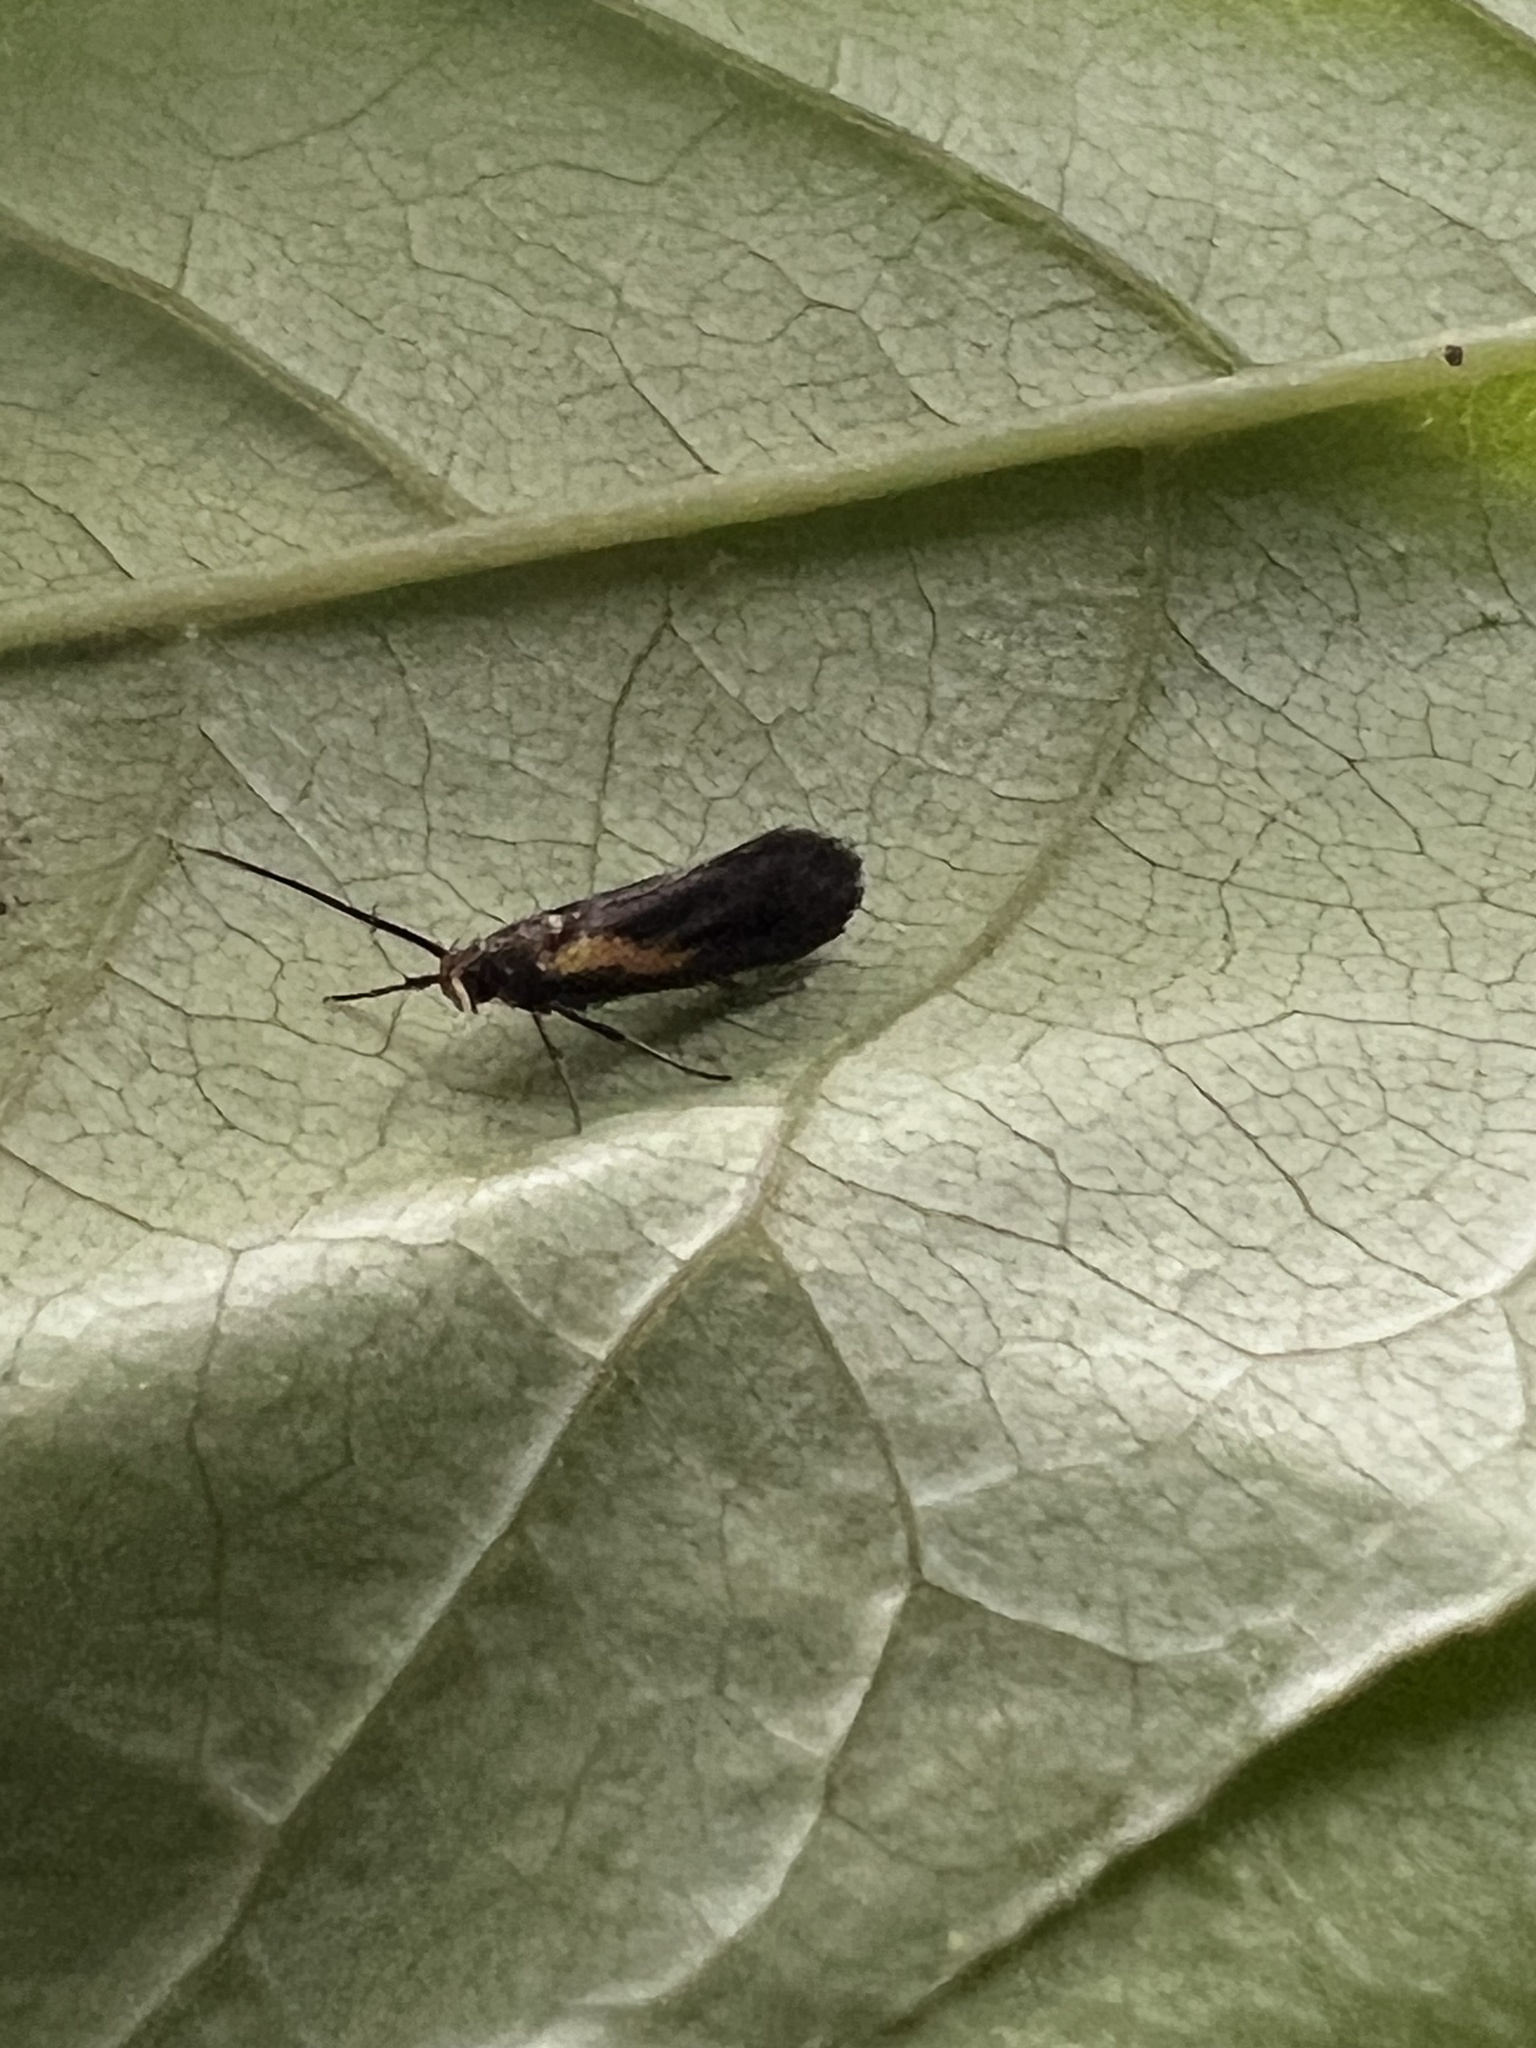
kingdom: Animalia
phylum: Arthropoda
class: Insecta
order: Lepidoptera
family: Oecophoridae
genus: Mathildana
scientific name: Mathildana newmanella
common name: Newman's mathildana moth
